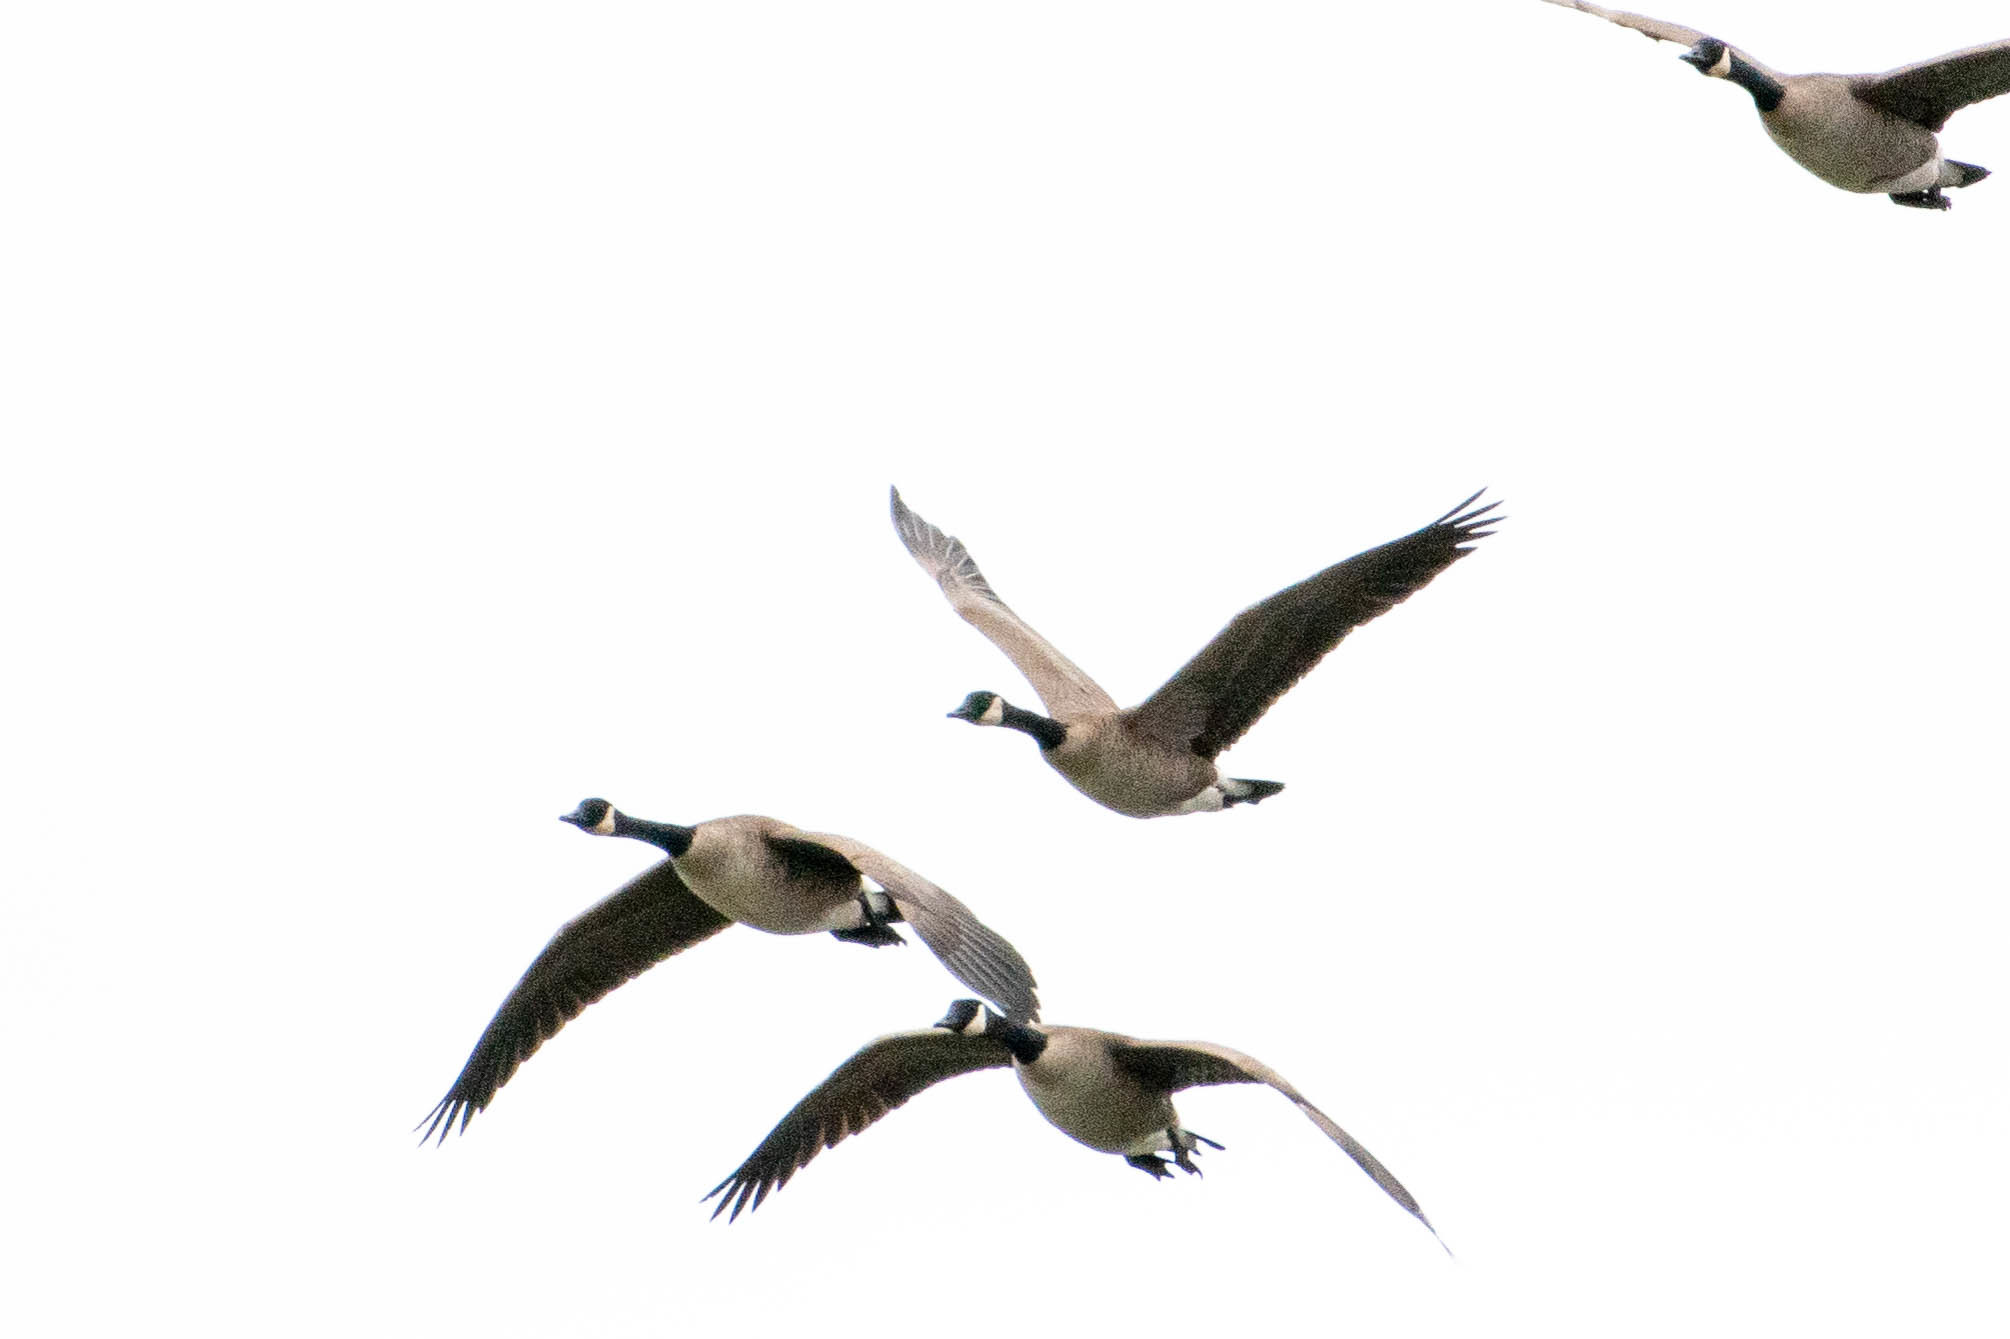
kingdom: Animalia
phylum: Chordata
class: Aves
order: Anseriformes
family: Anatidae
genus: Branta
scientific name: Branta canadensis
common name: Canada goose
